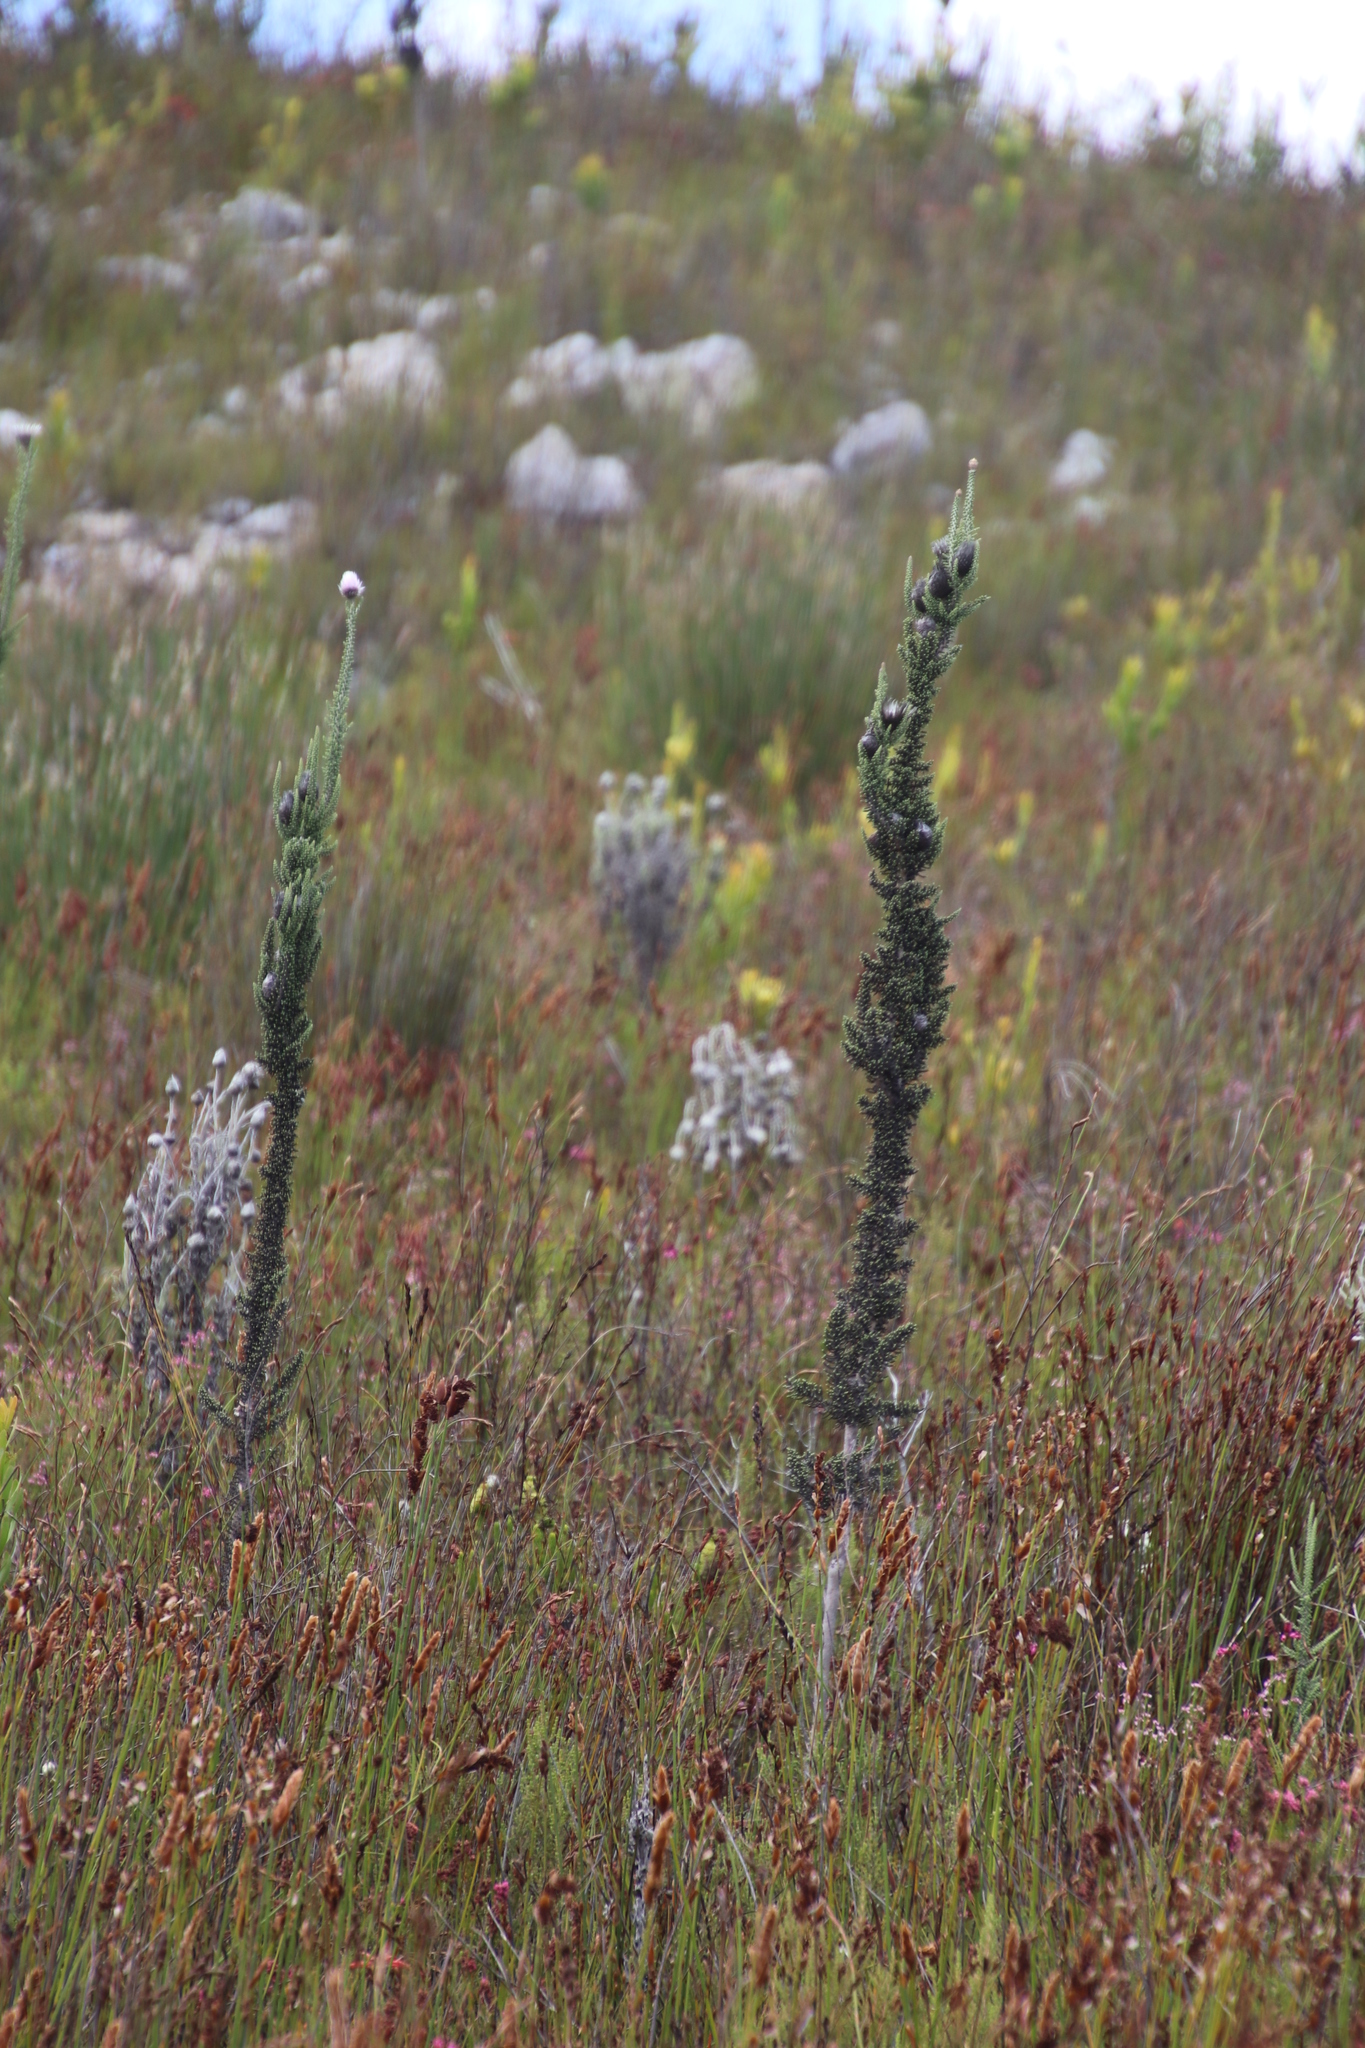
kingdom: Plantae
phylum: Tracheophyta
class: Magnoliopsida
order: Asterales
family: Asteraceae
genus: Phaenocoma
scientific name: Phaenocoma prolifera
